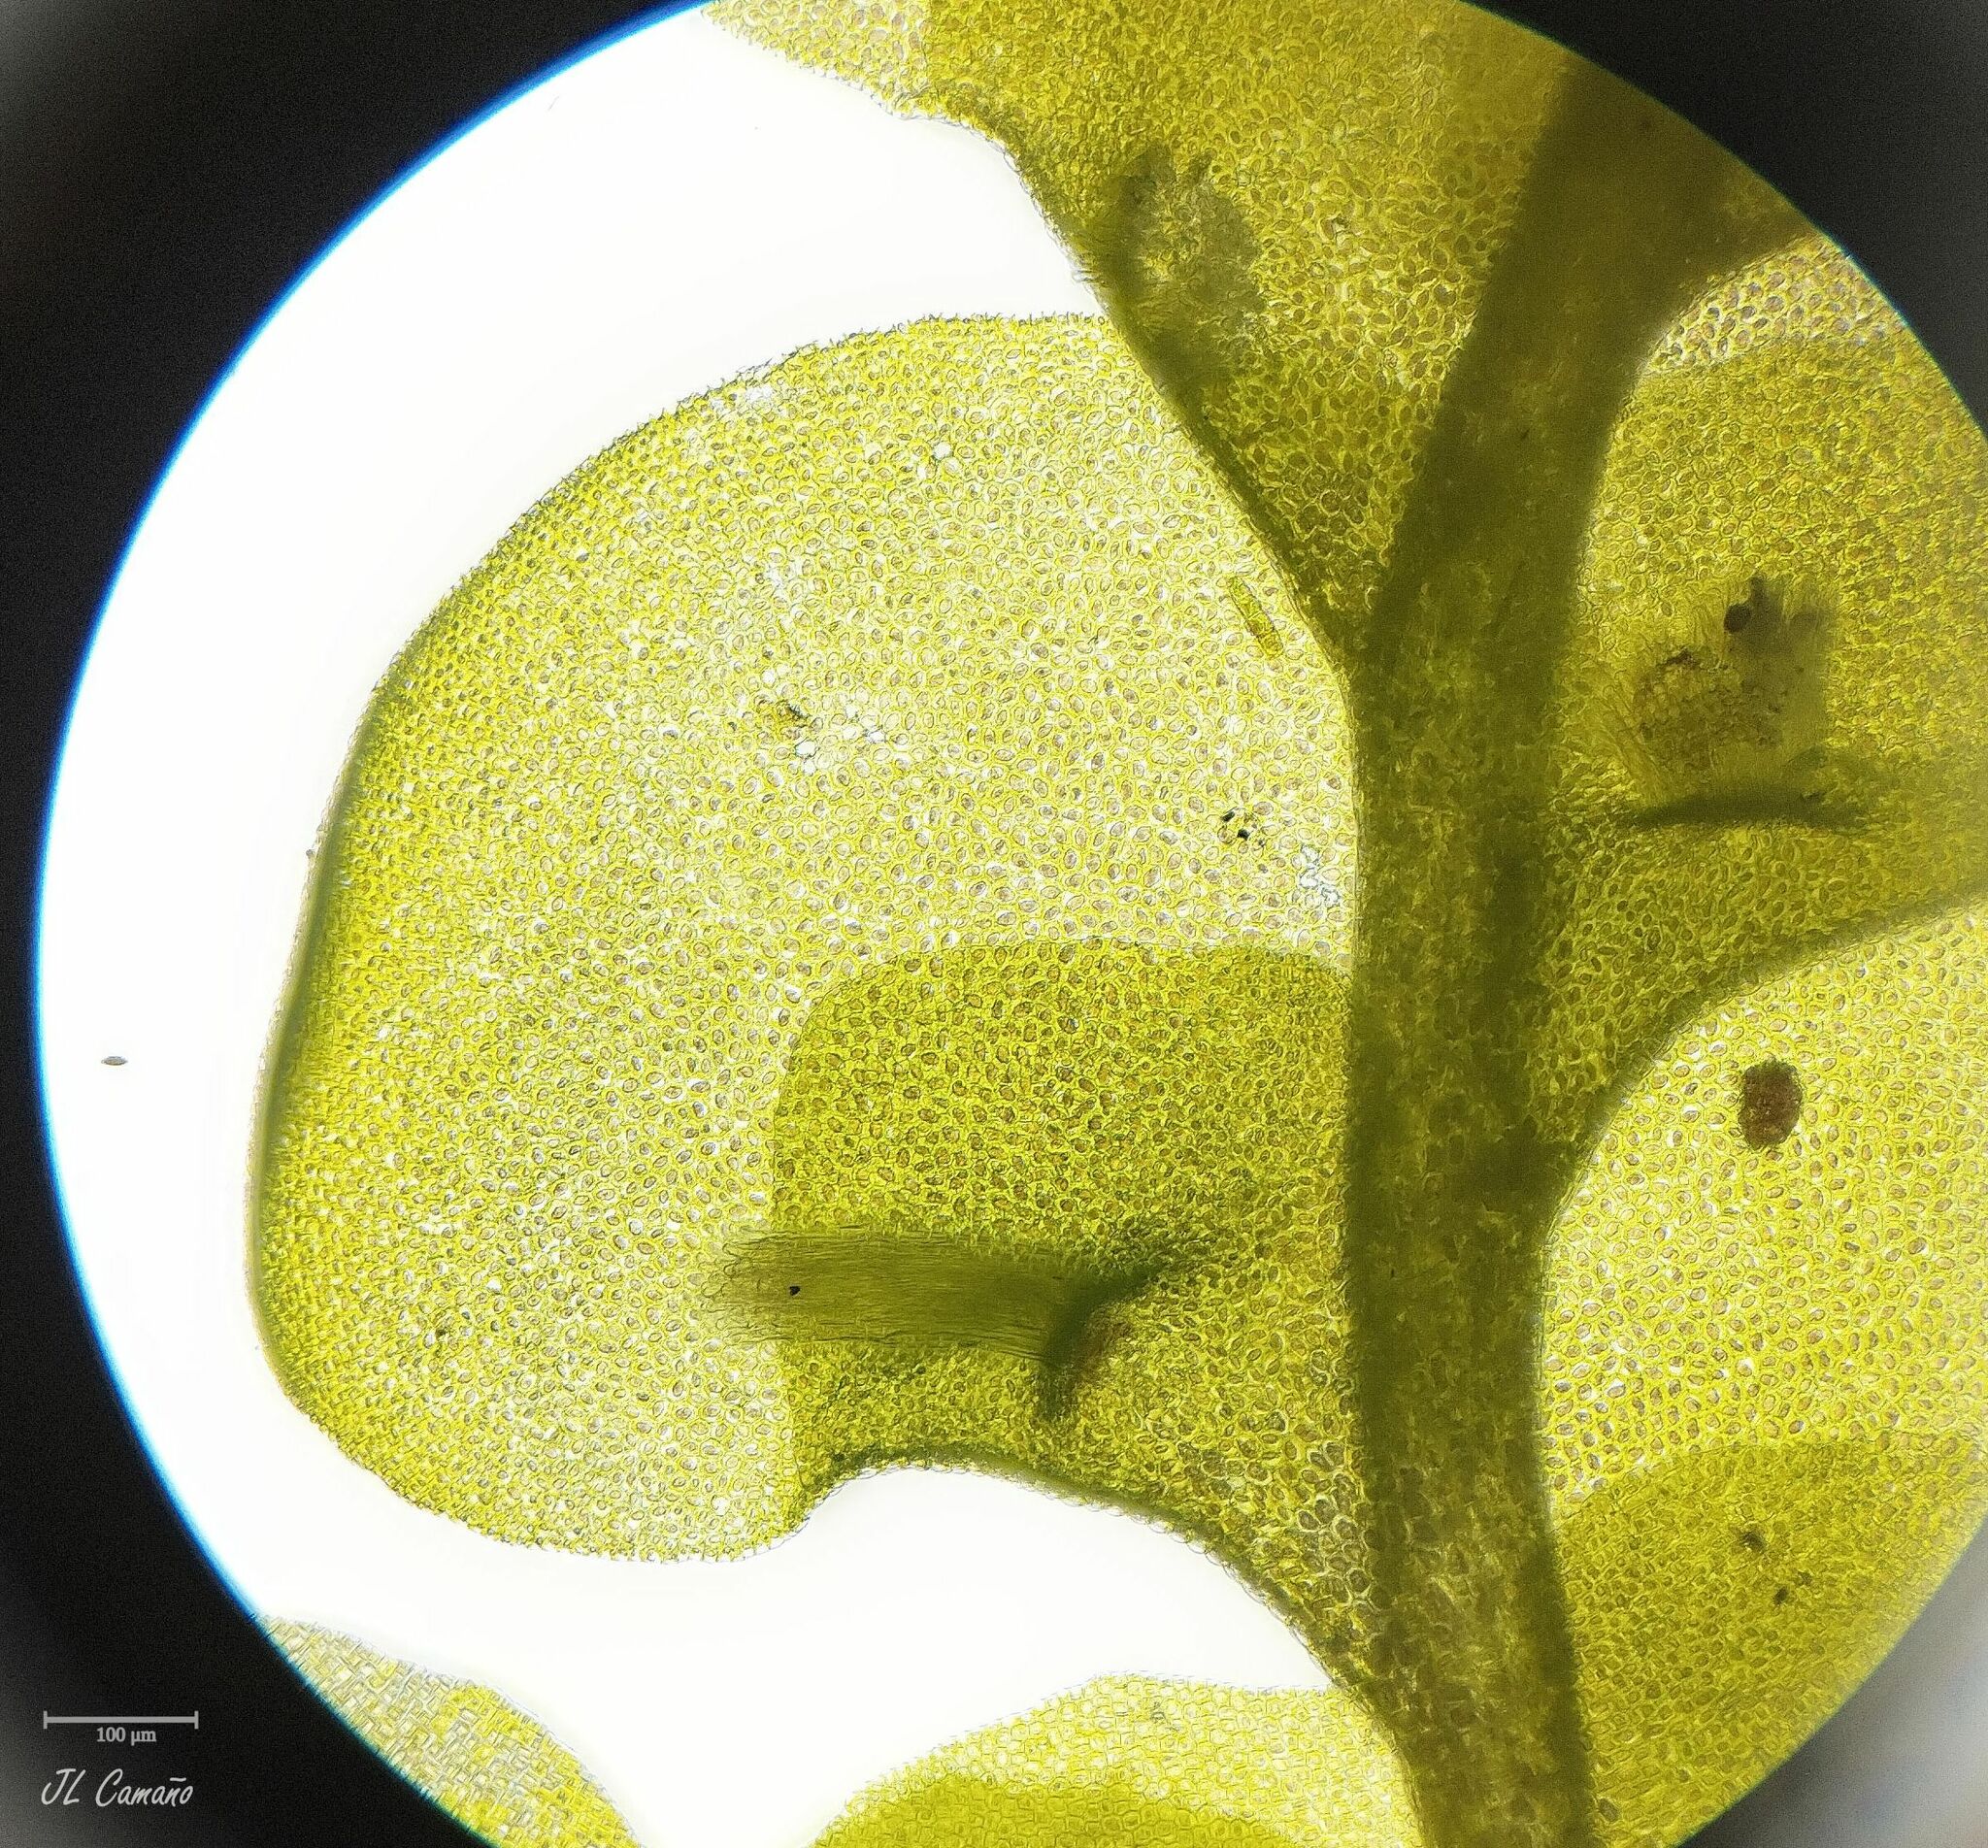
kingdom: Plantae
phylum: Marchantiophyta
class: Jungermanniopsida
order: Porellales
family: Radulaceae
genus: Radula
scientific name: Radula complanata
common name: Flat-leaved scalewort
